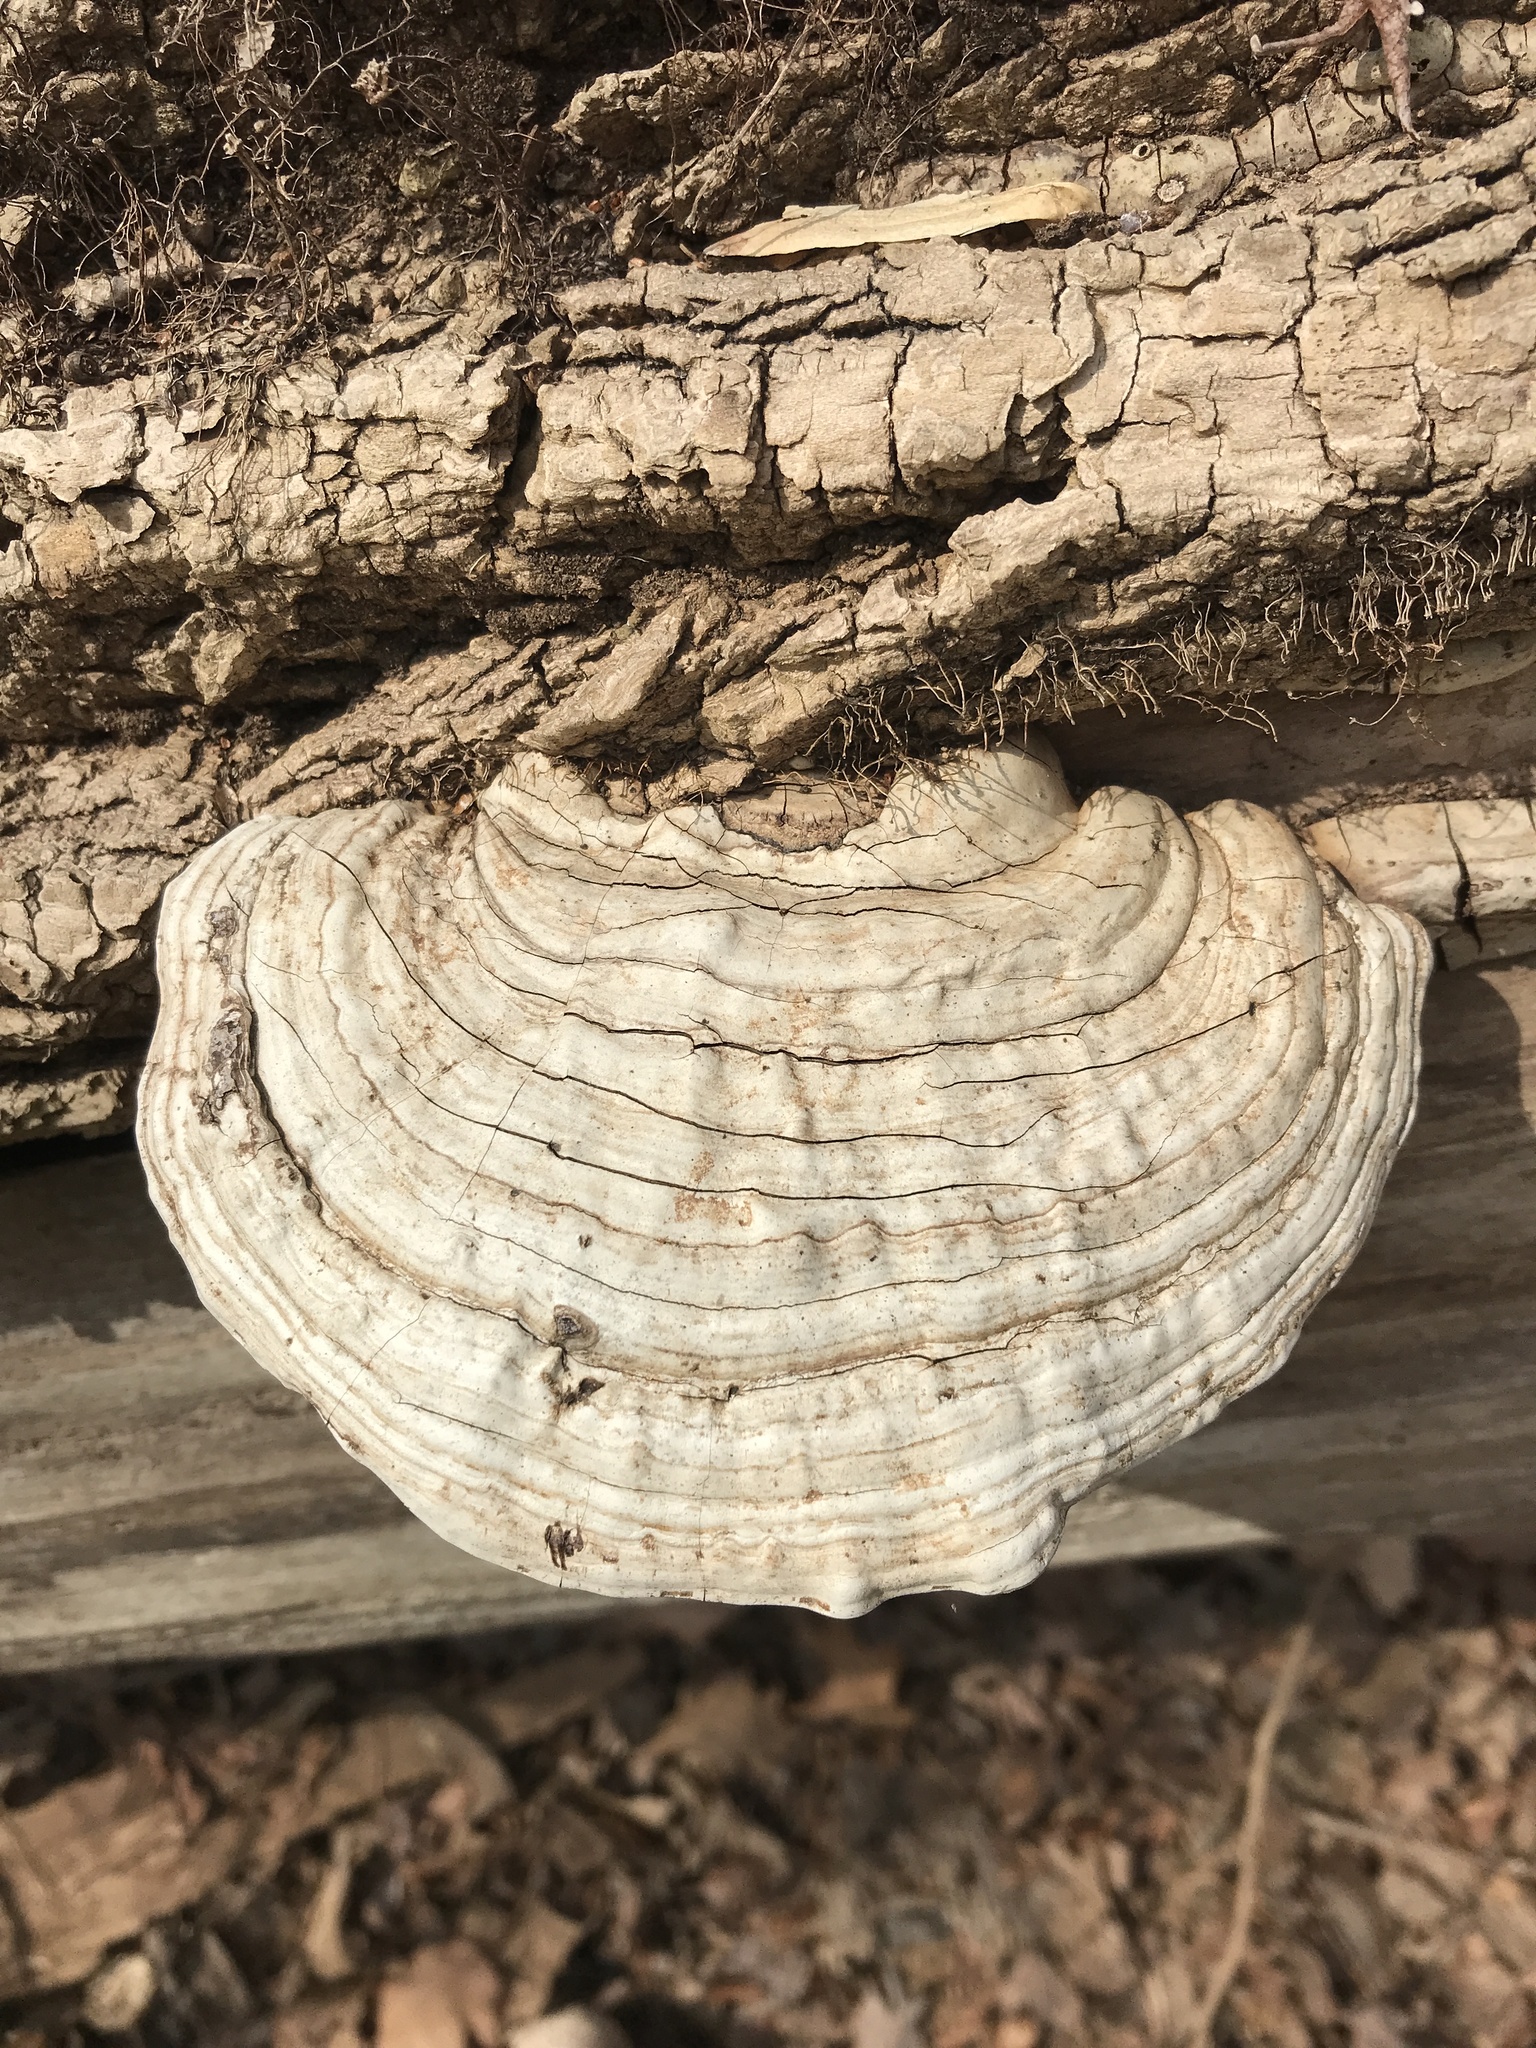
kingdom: Fungi
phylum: Basidiomycota
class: Agaricomycetes
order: Polyporales
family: Polyporaceae
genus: Ganoderma
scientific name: Ganoderma applanatum
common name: Artist's bracket
